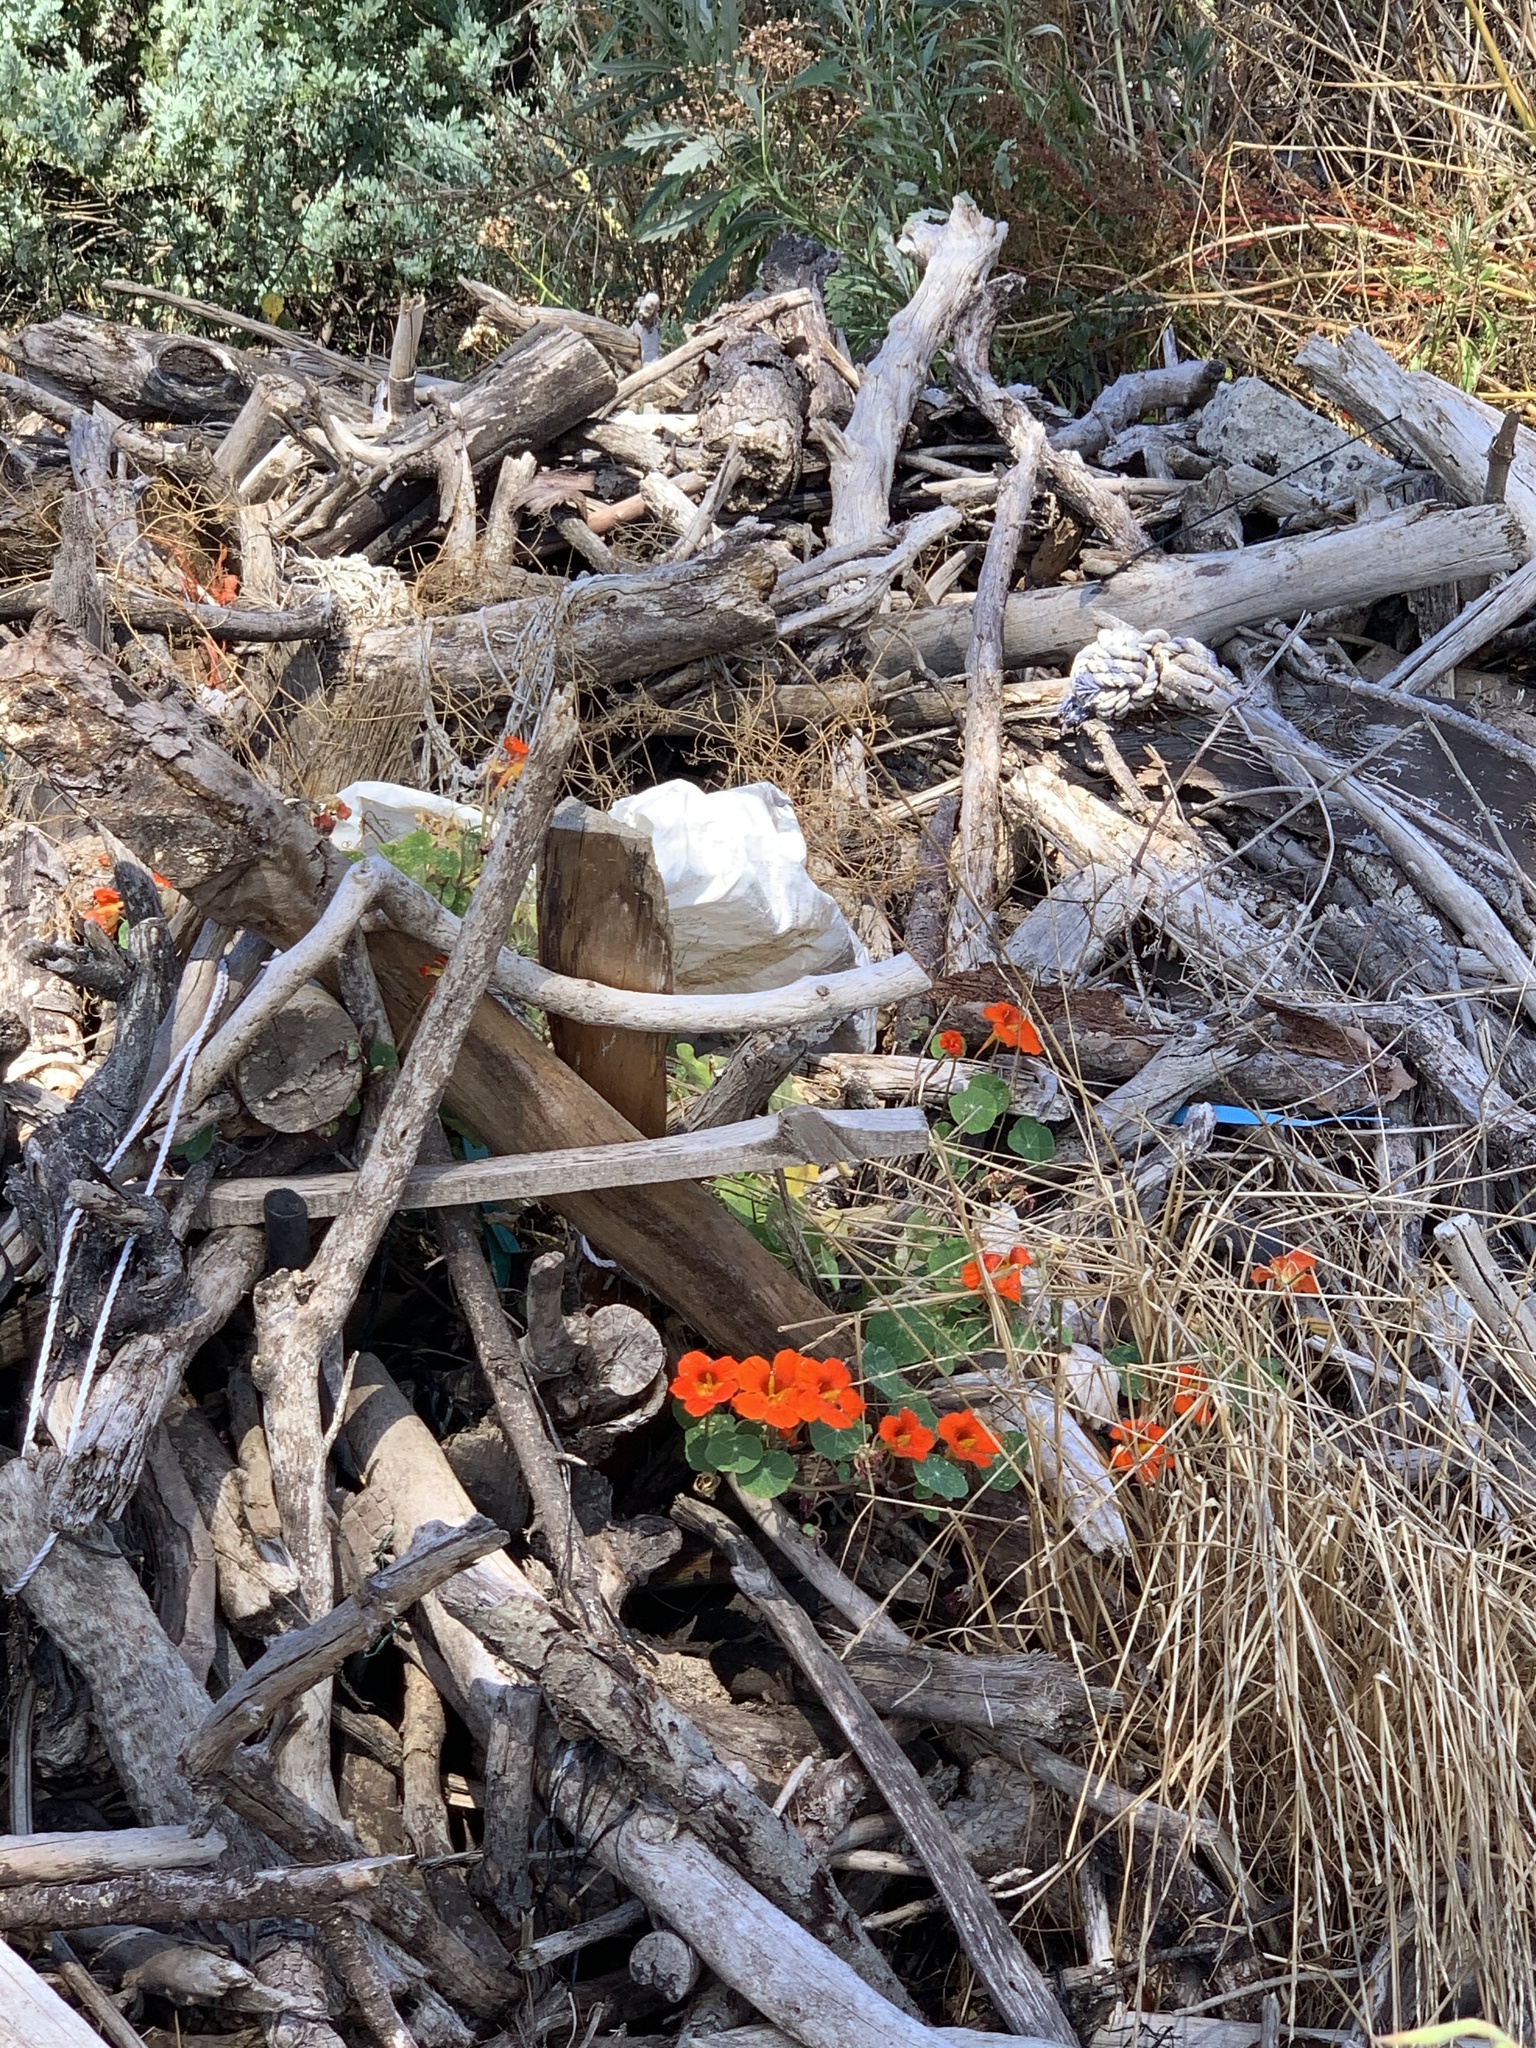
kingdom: Plantae
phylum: Tracheophyta
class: Magnoliopsida
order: Brassicales
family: Tropaeolaceae
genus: Tropaeolum
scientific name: Tropaeolum majus
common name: Nasturtium
